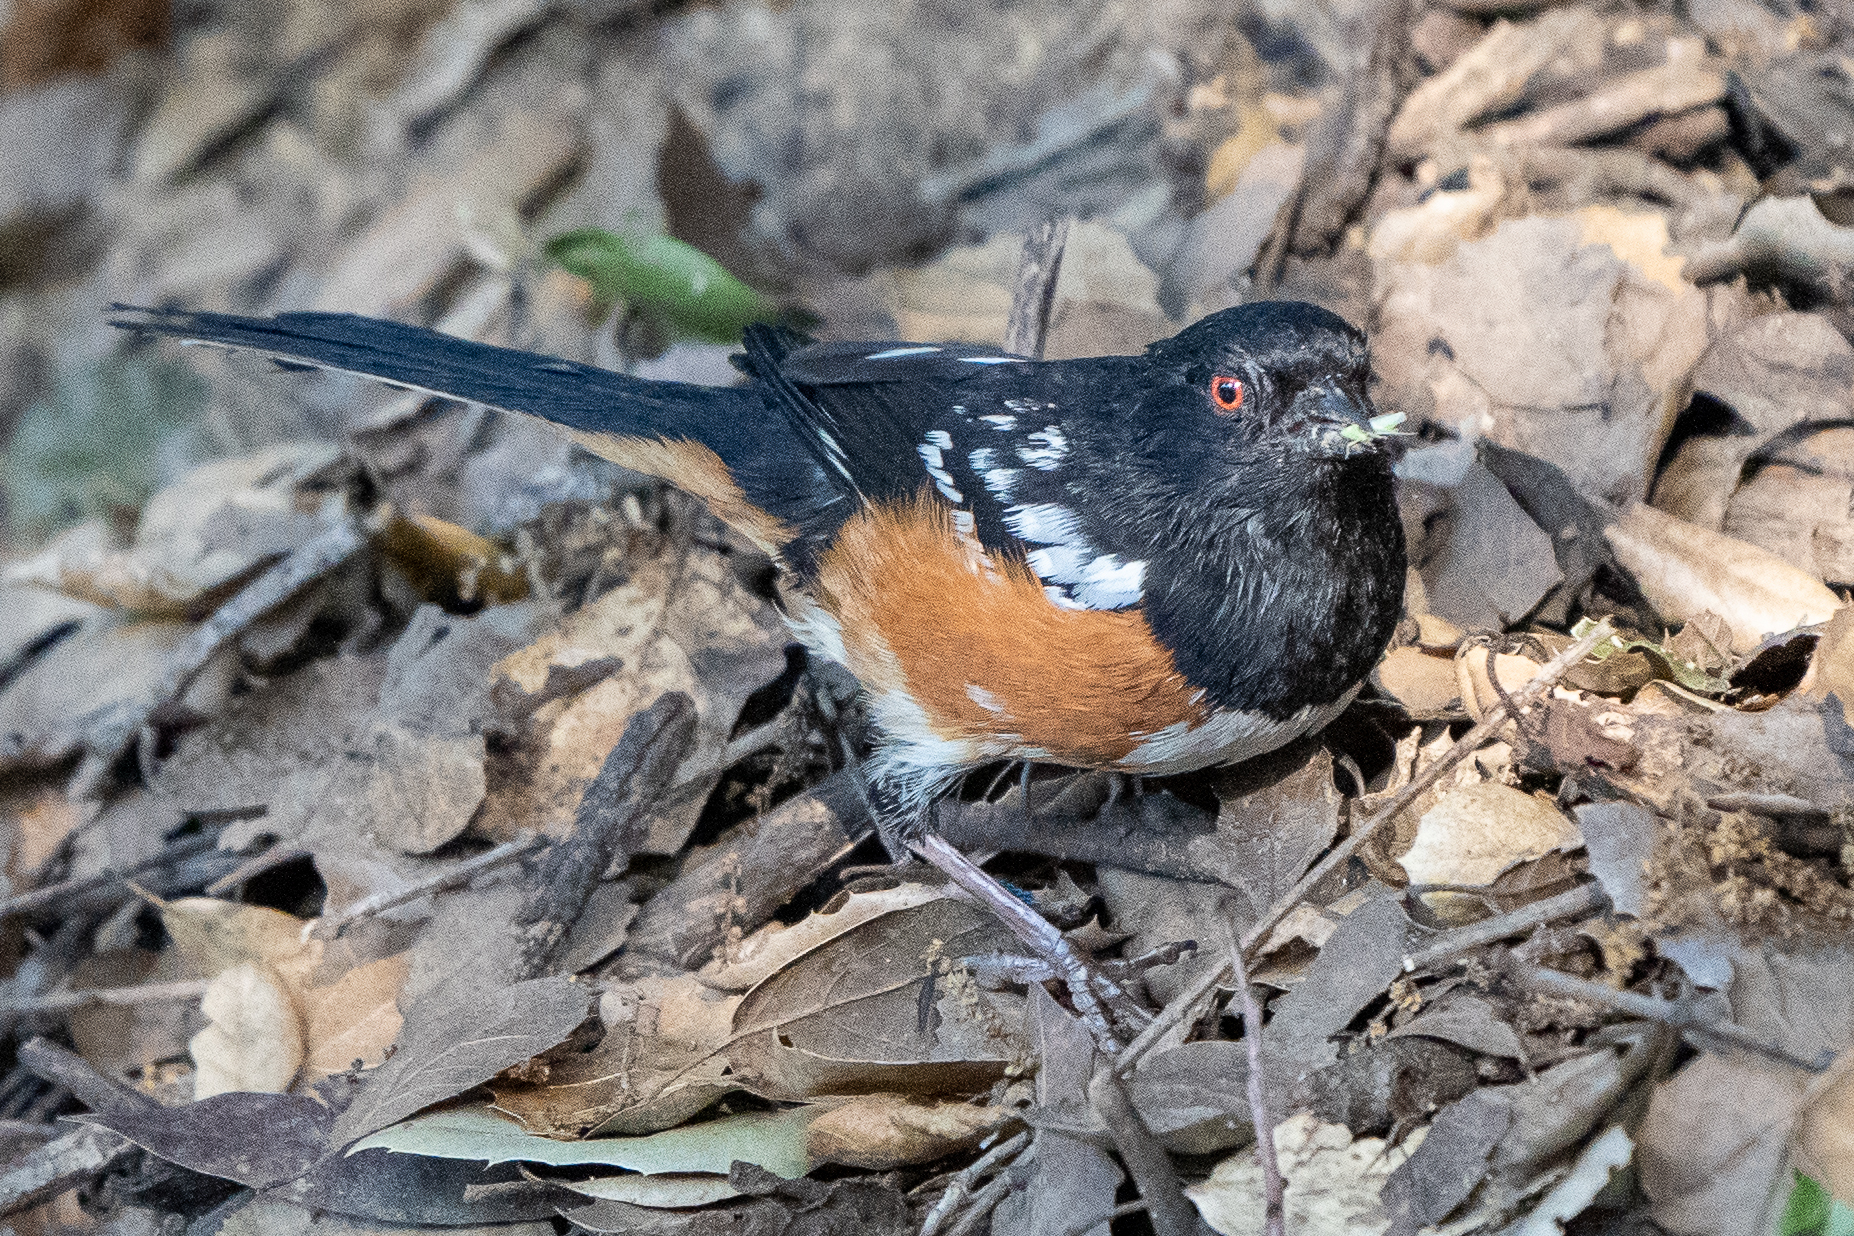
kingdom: Animalia
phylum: Chordata
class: Aves
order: Passeriformes
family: Passerellidae
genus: Pipilo
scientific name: Pipilo maculatus
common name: Spotted towhee
